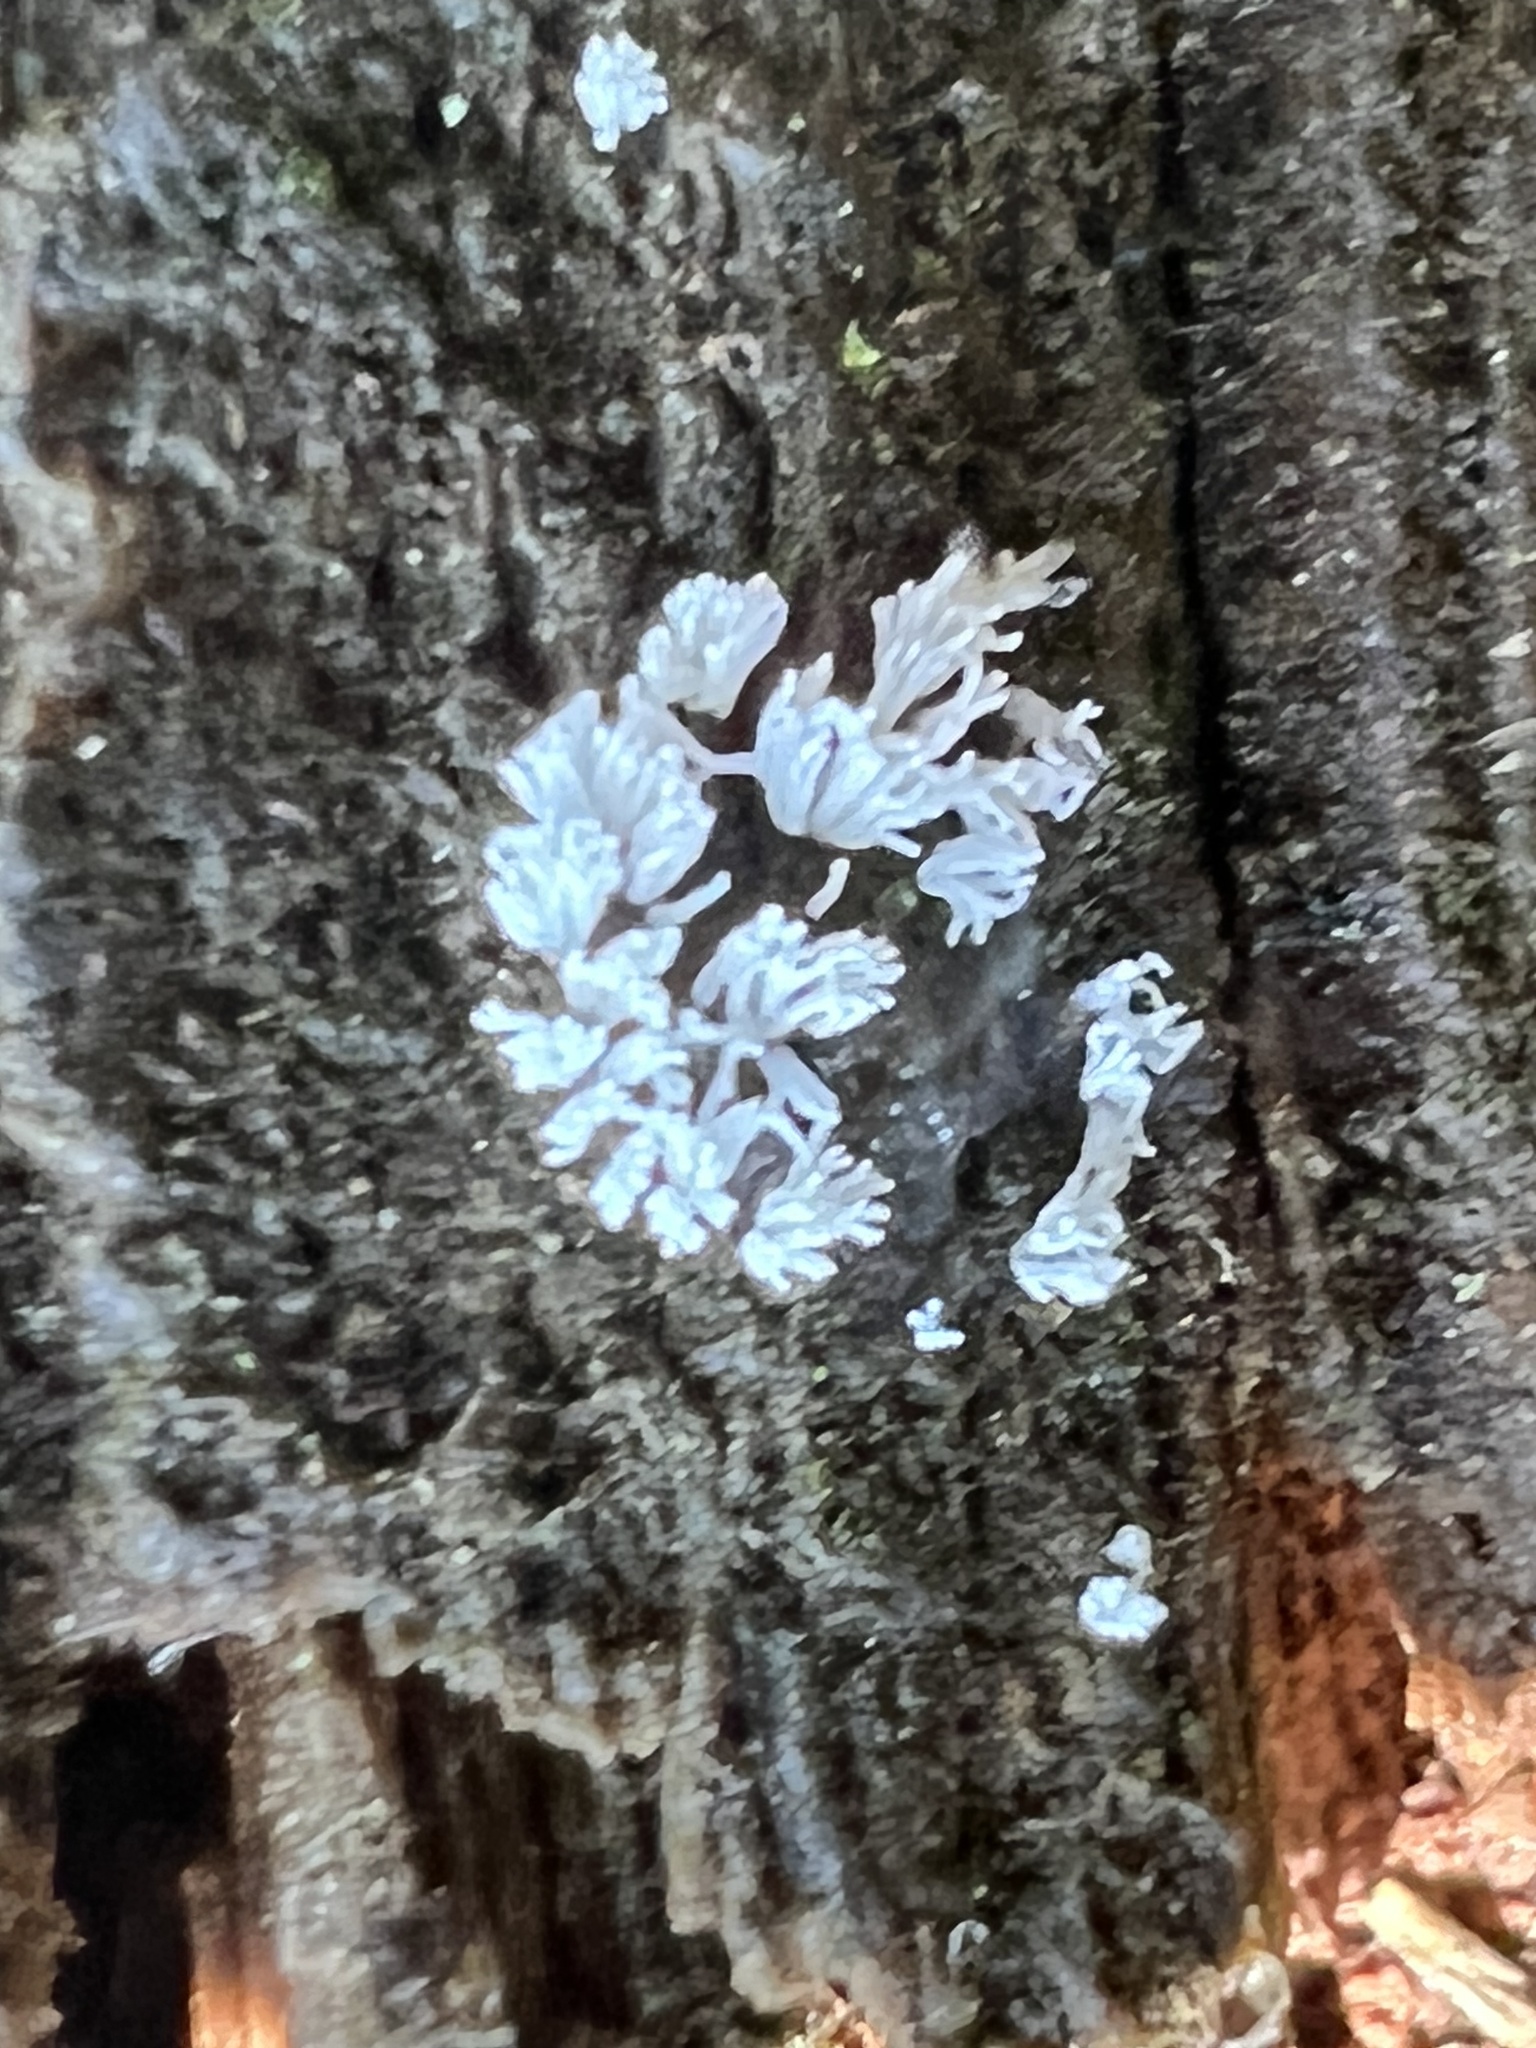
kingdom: Protozoa
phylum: Mycetozoa
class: Protosteliomycetes
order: Ceratiomyxales
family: Ceratiomyxaceae
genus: Ceratiomyxa
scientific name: Ceratiomyxa fruticulosa
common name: Honeycomb coral slime mold
